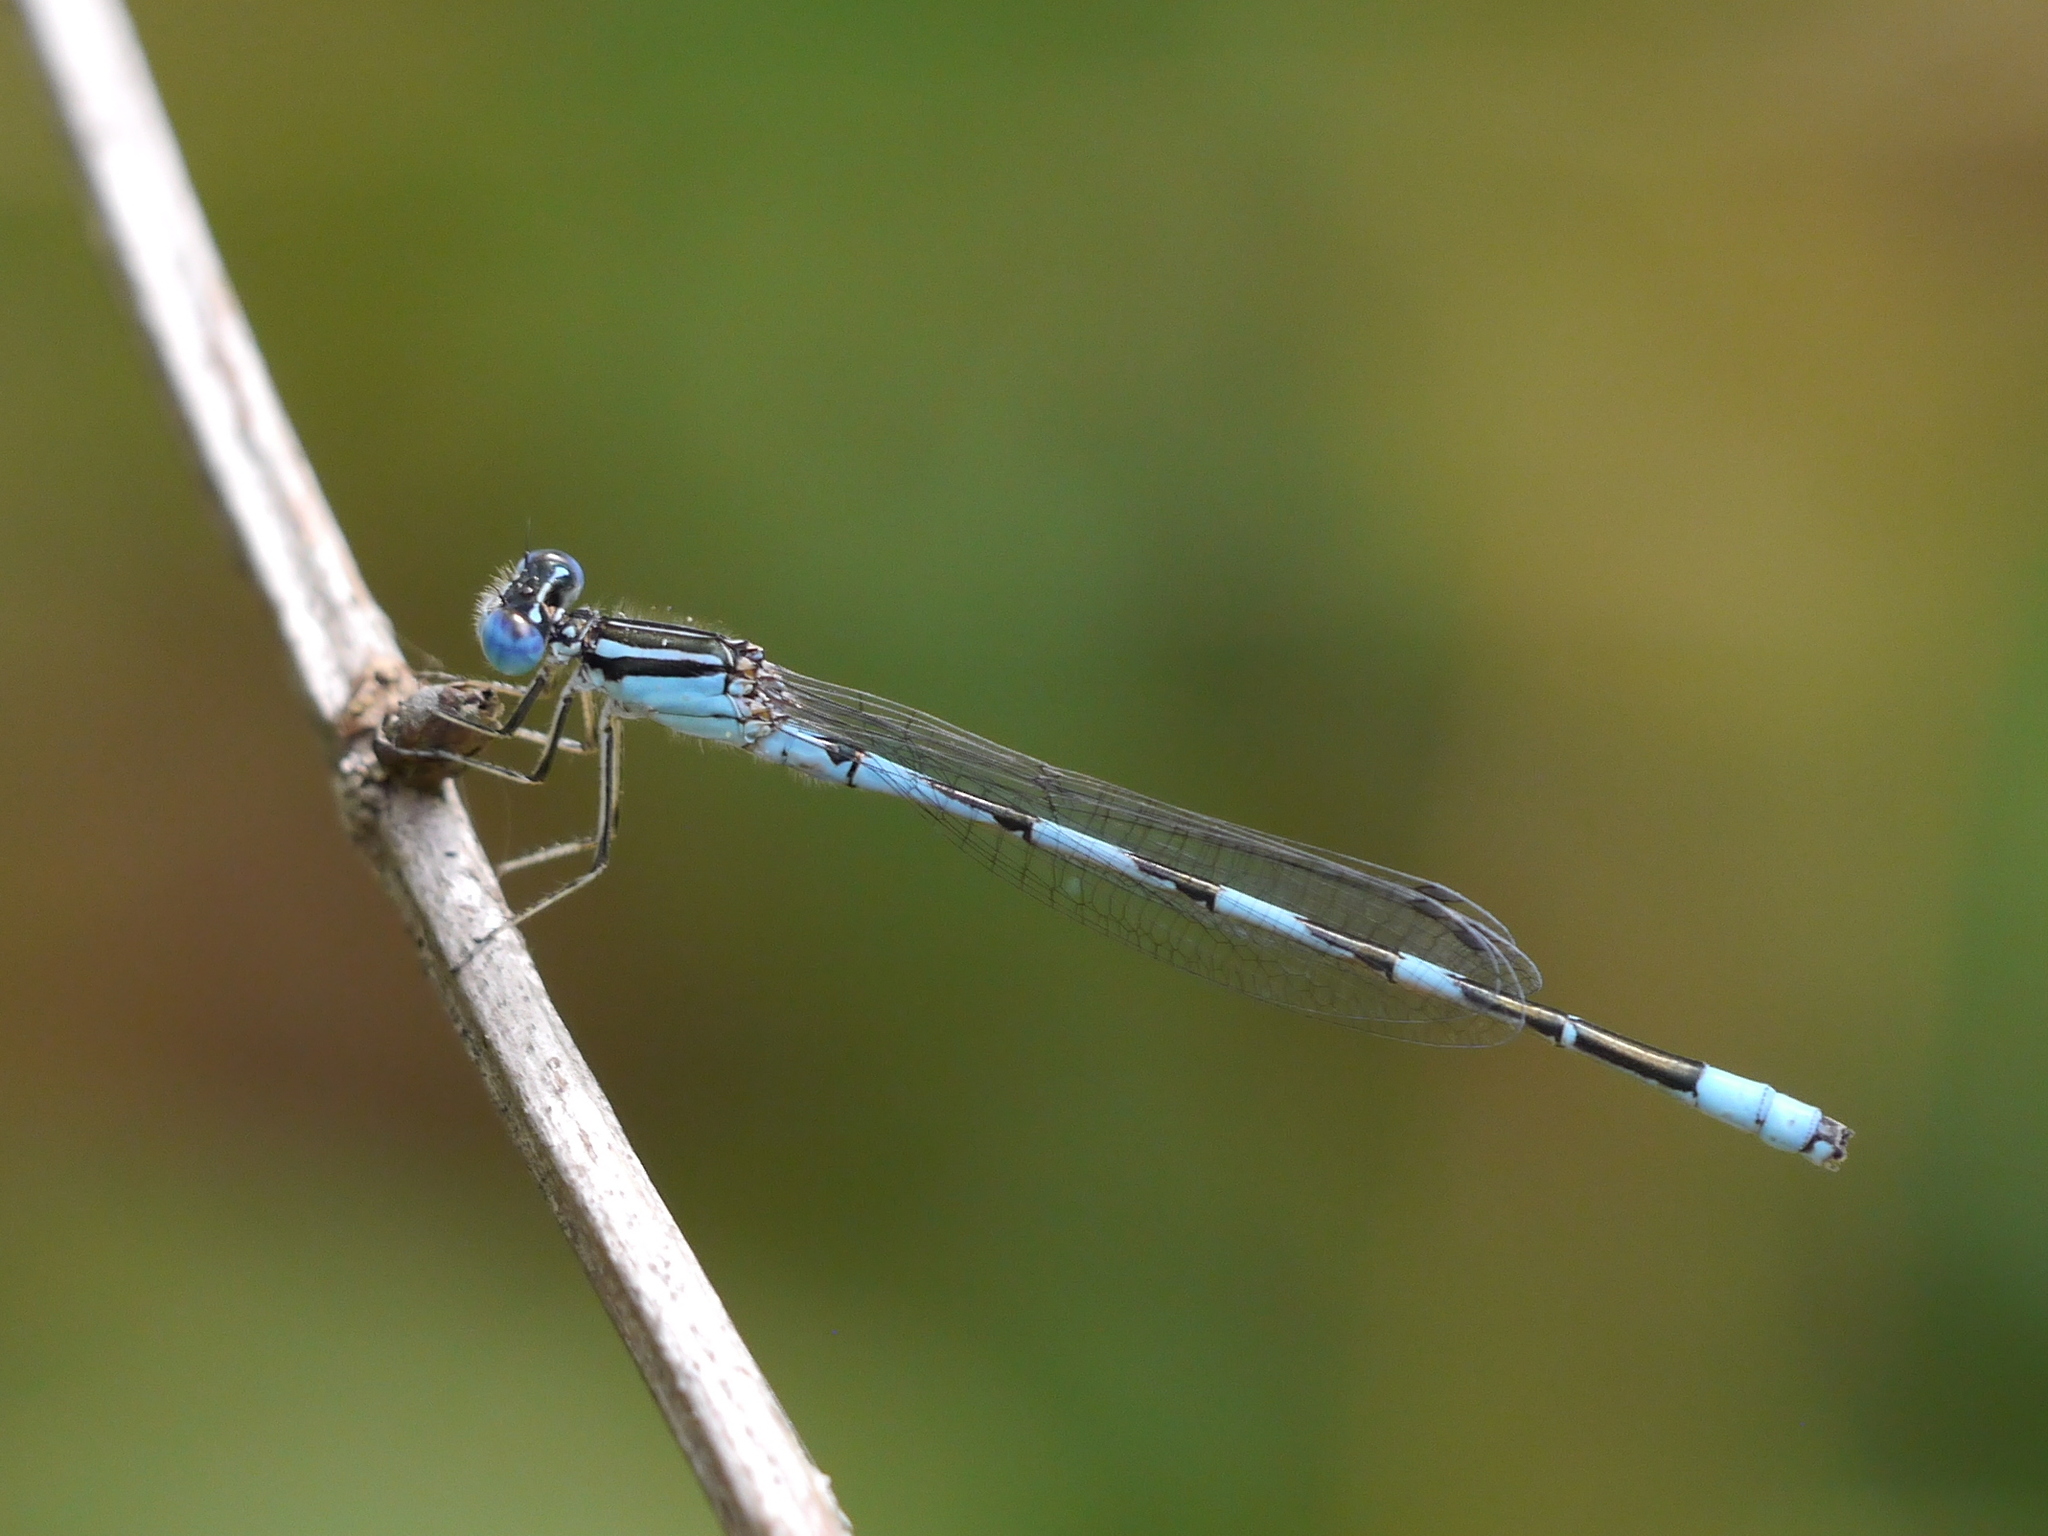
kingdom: Animalia
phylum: Arthropoda
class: Insecta
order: Odonata
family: Coenagrionidae
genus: Enallagma
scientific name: Enallagma durum
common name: Big bluet
